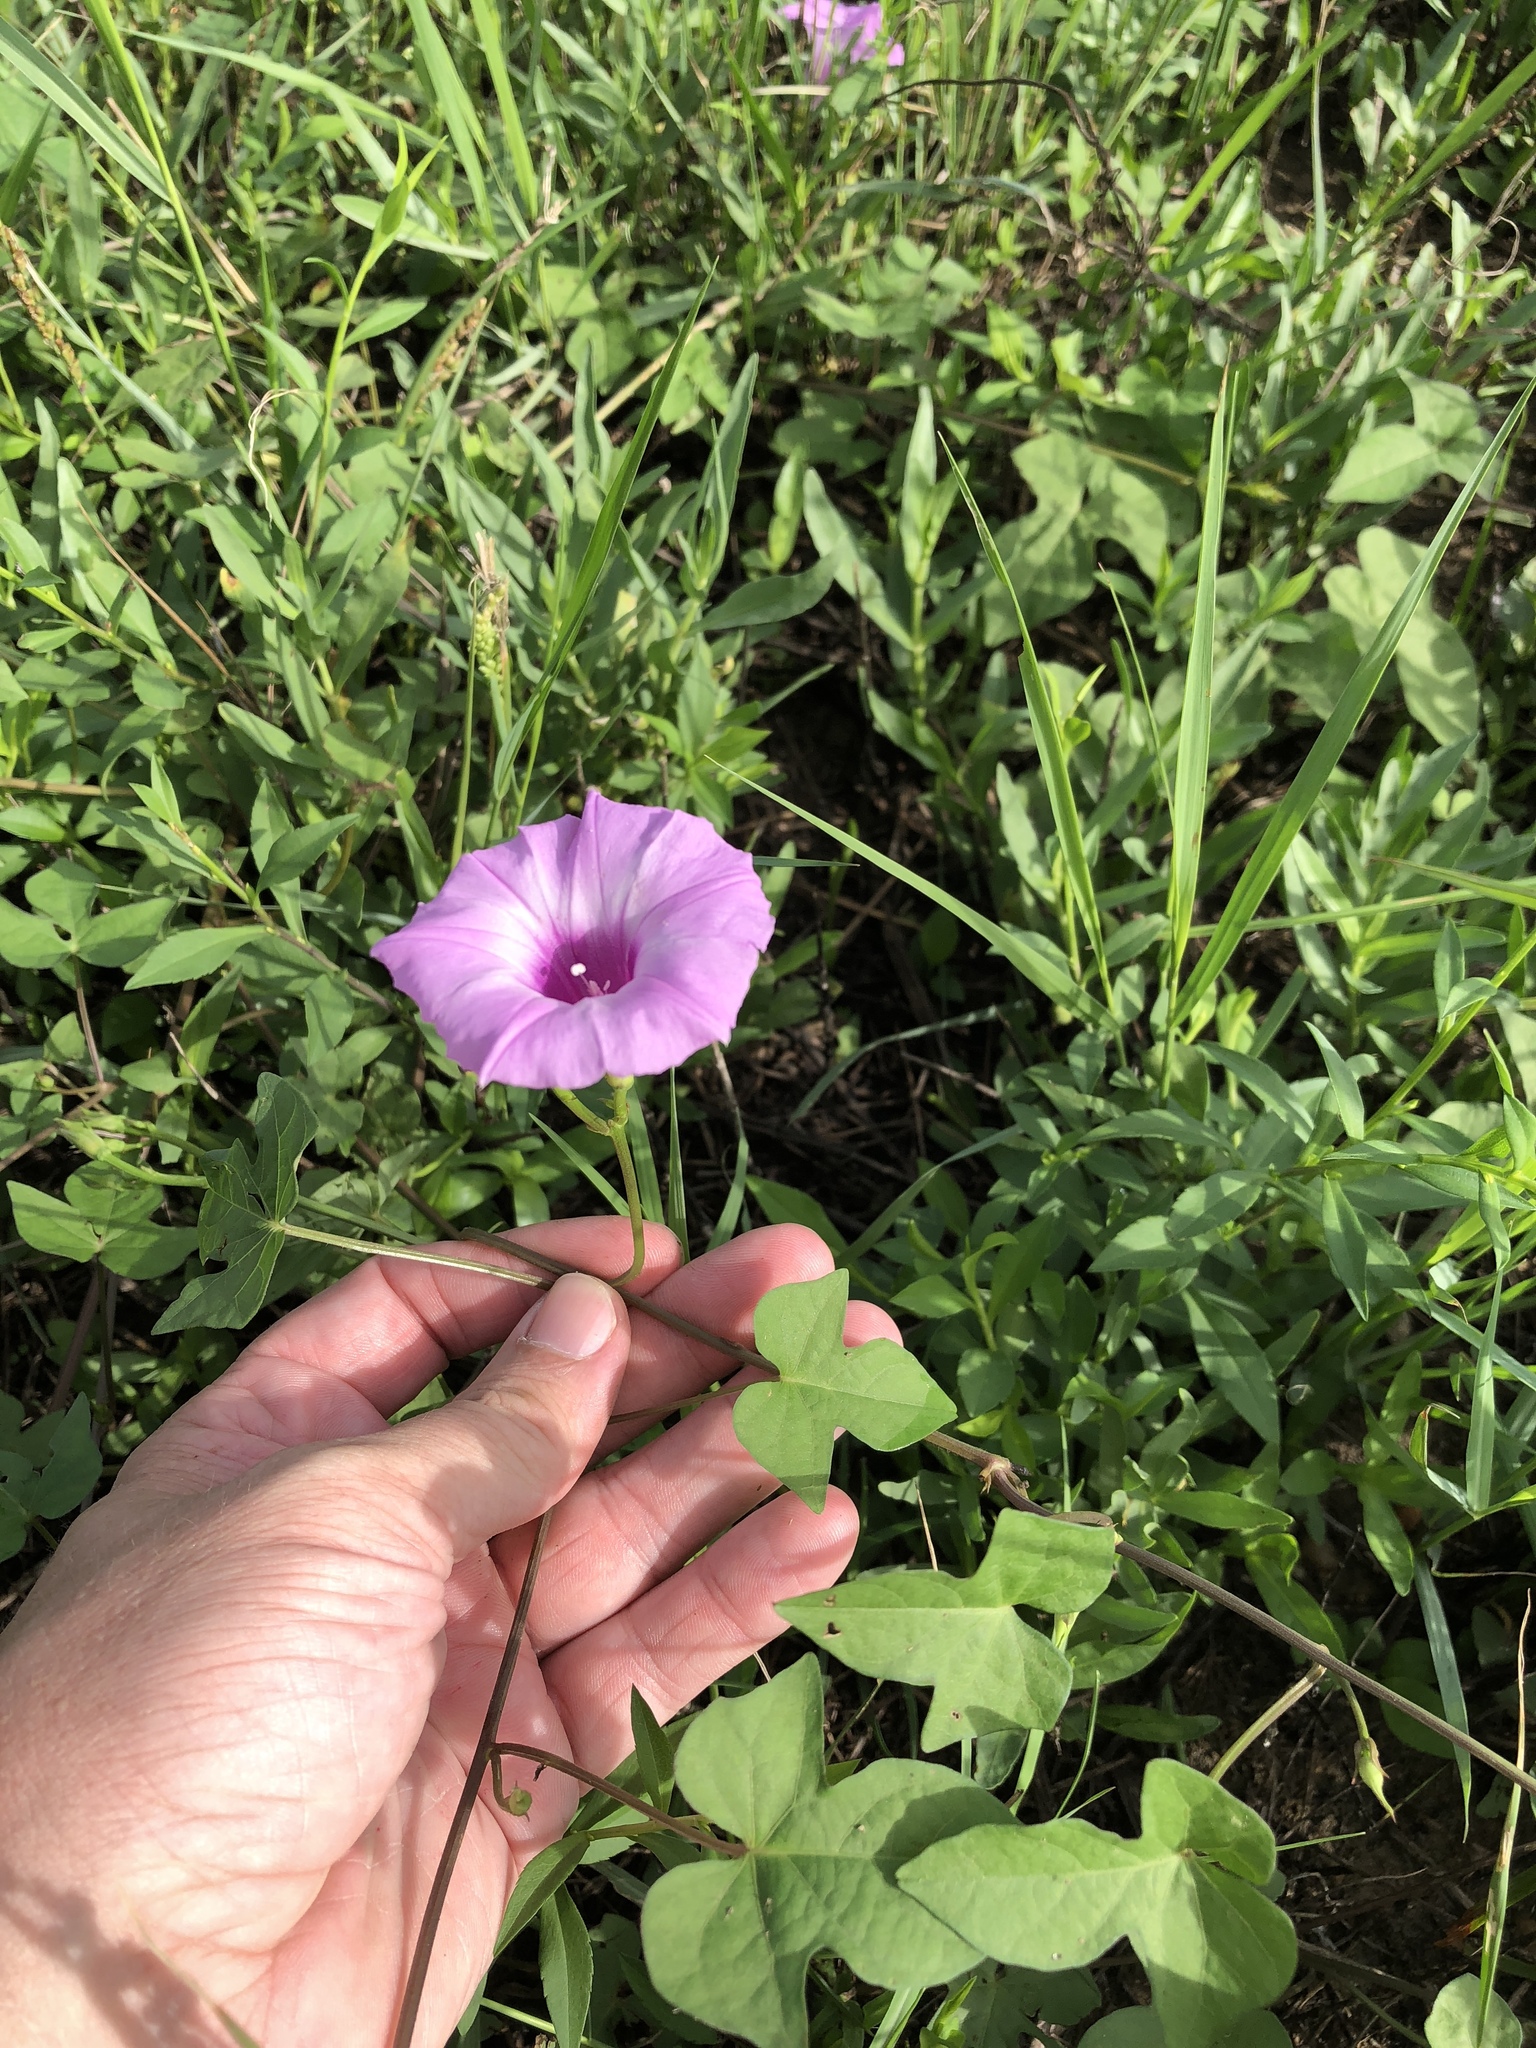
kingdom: Plantae
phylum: Tracheophyta
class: Magnoliopsida
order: Solanales
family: Convolvulaceae
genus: Ipomoea
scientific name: Ipomoea cordatotriloba
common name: Cotton morning glory
